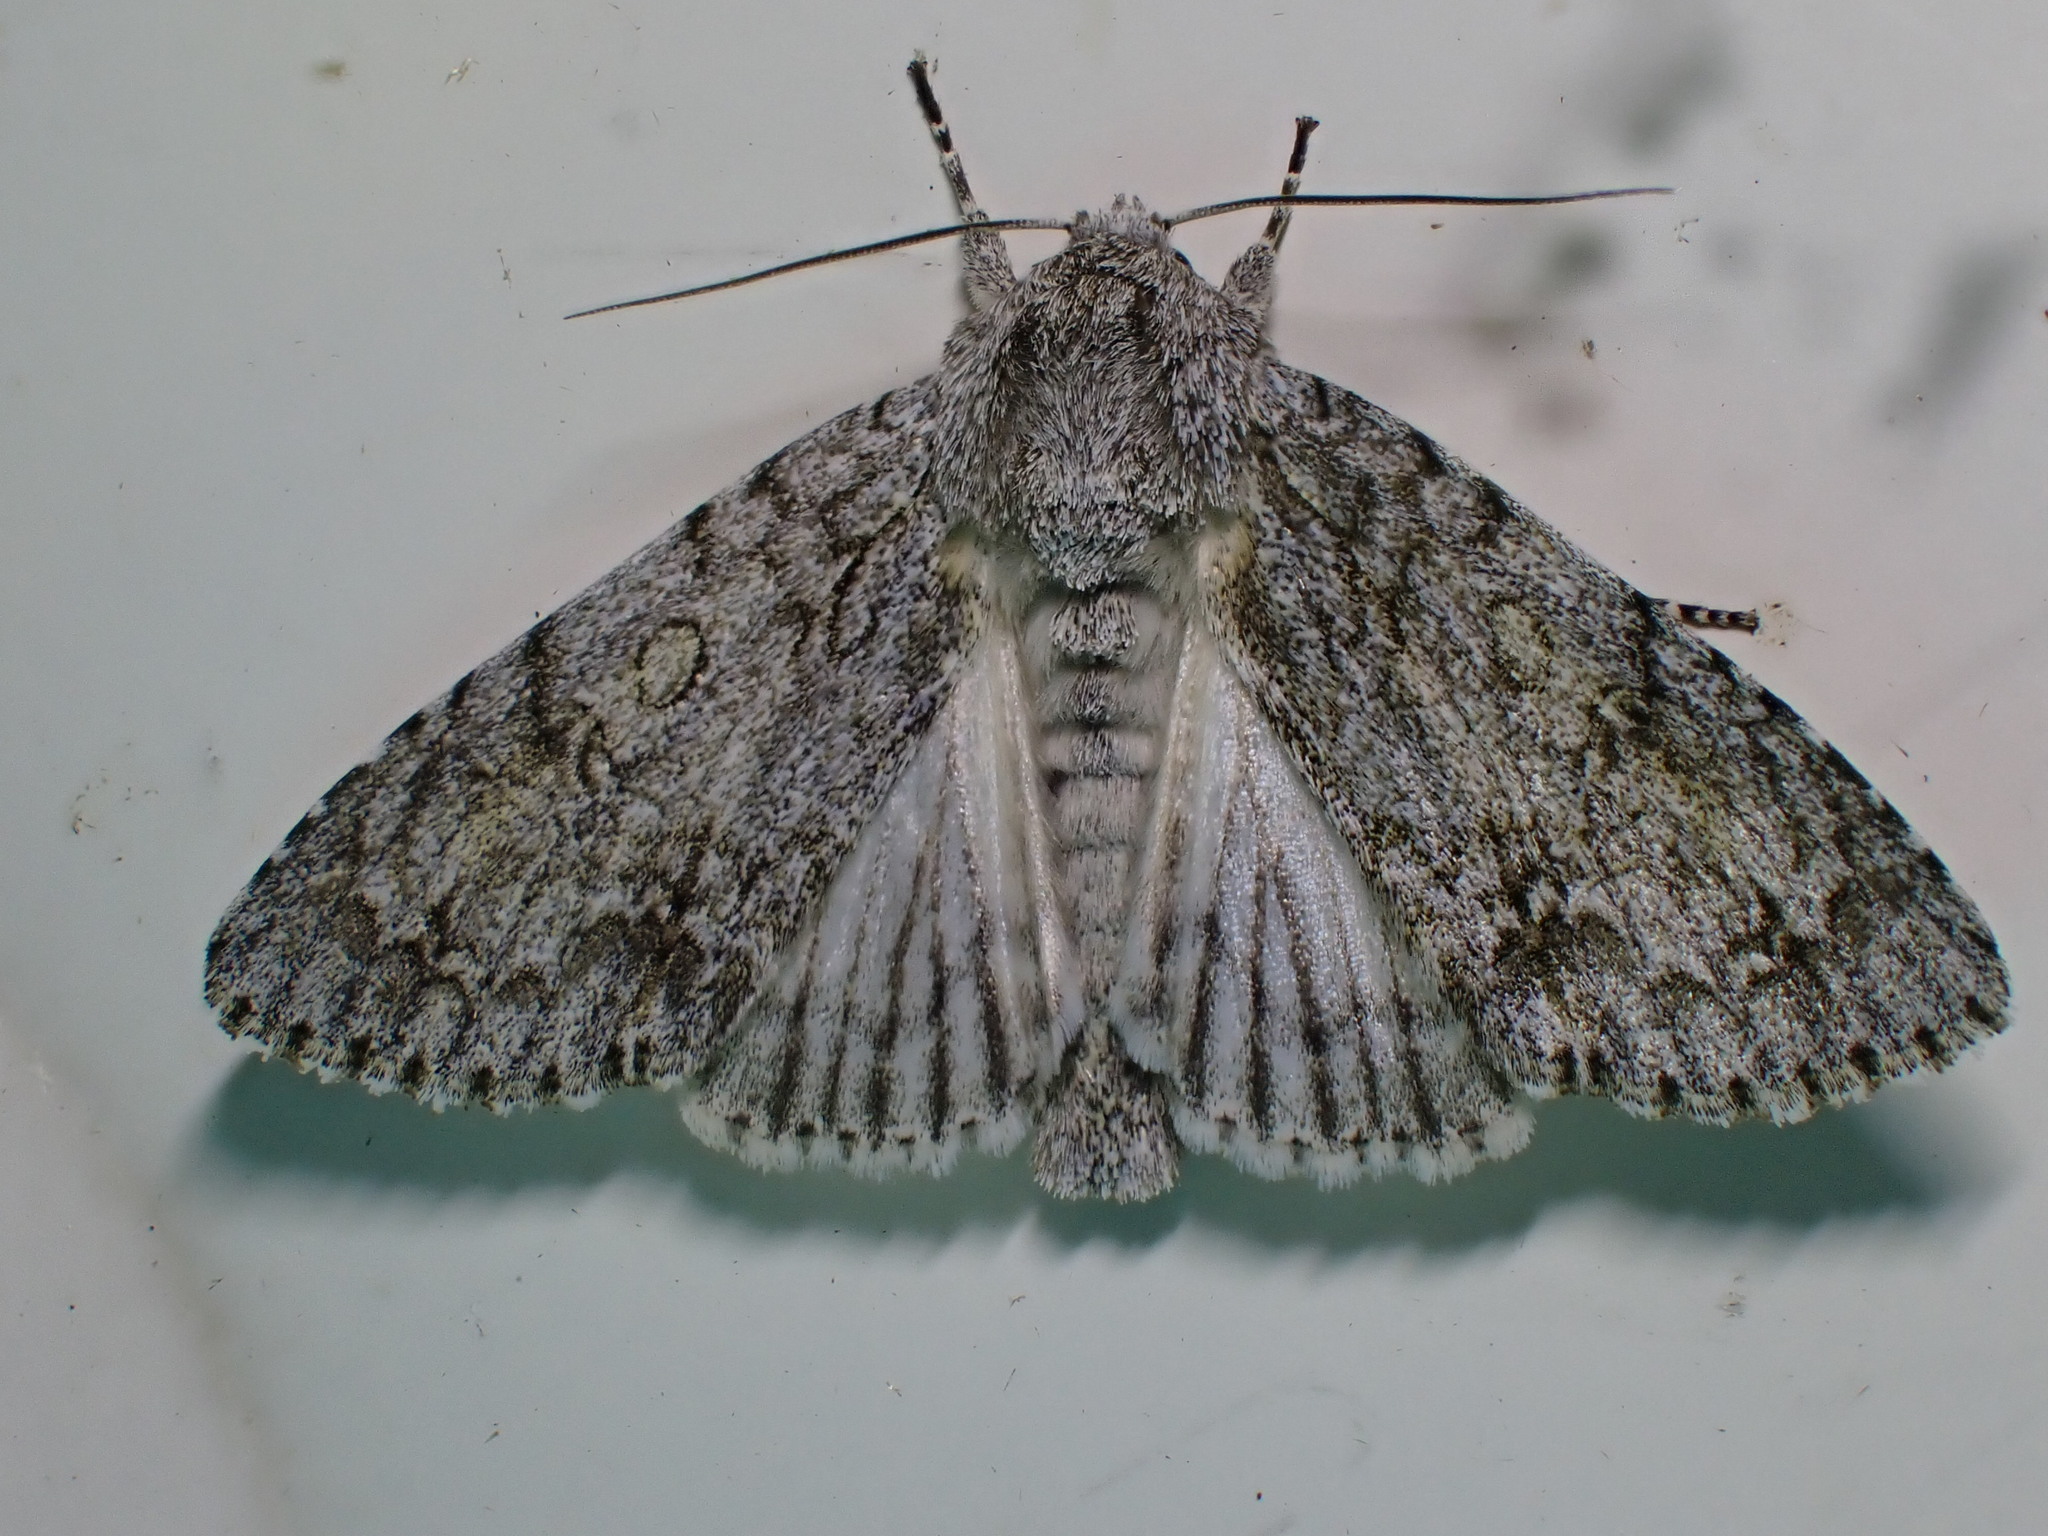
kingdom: Animalia
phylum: Arthropoda
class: Insecta
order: Lepidoptera
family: Noctuidae
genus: Acronicta
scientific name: Acronicta aceris
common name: Sycamore
